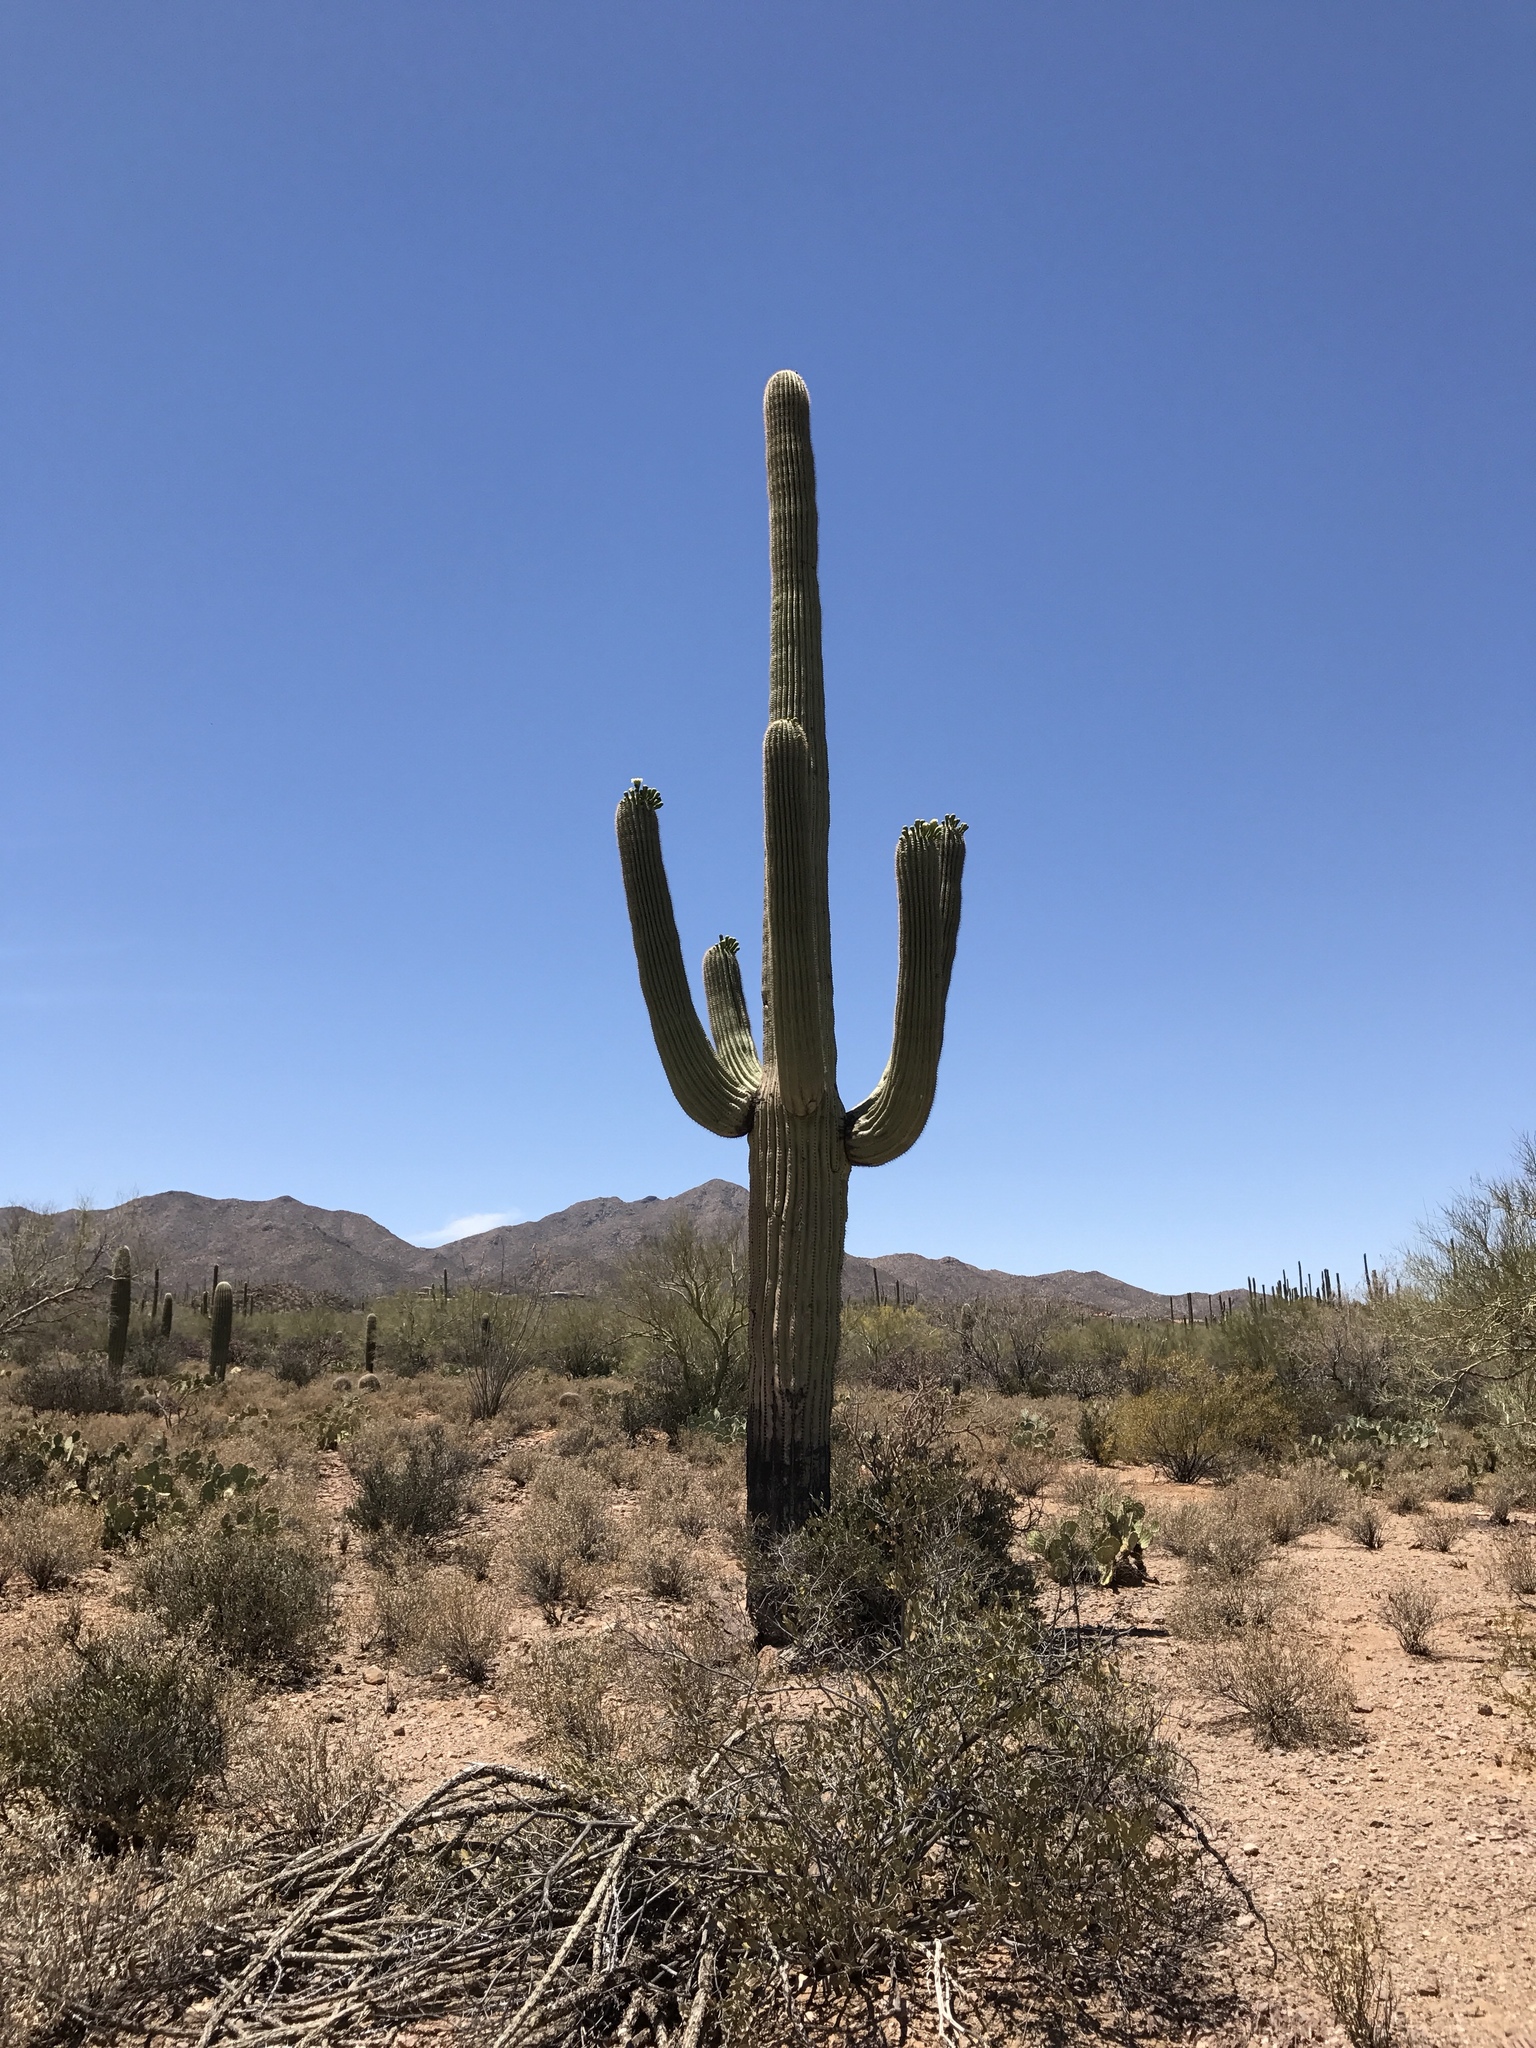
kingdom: Plantae
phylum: Tracheophyta
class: Magnoliopsida
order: Caryophyllales
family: Cactaceae
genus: Carnegiea
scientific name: Carnegiea gigantea
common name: Saguaro
